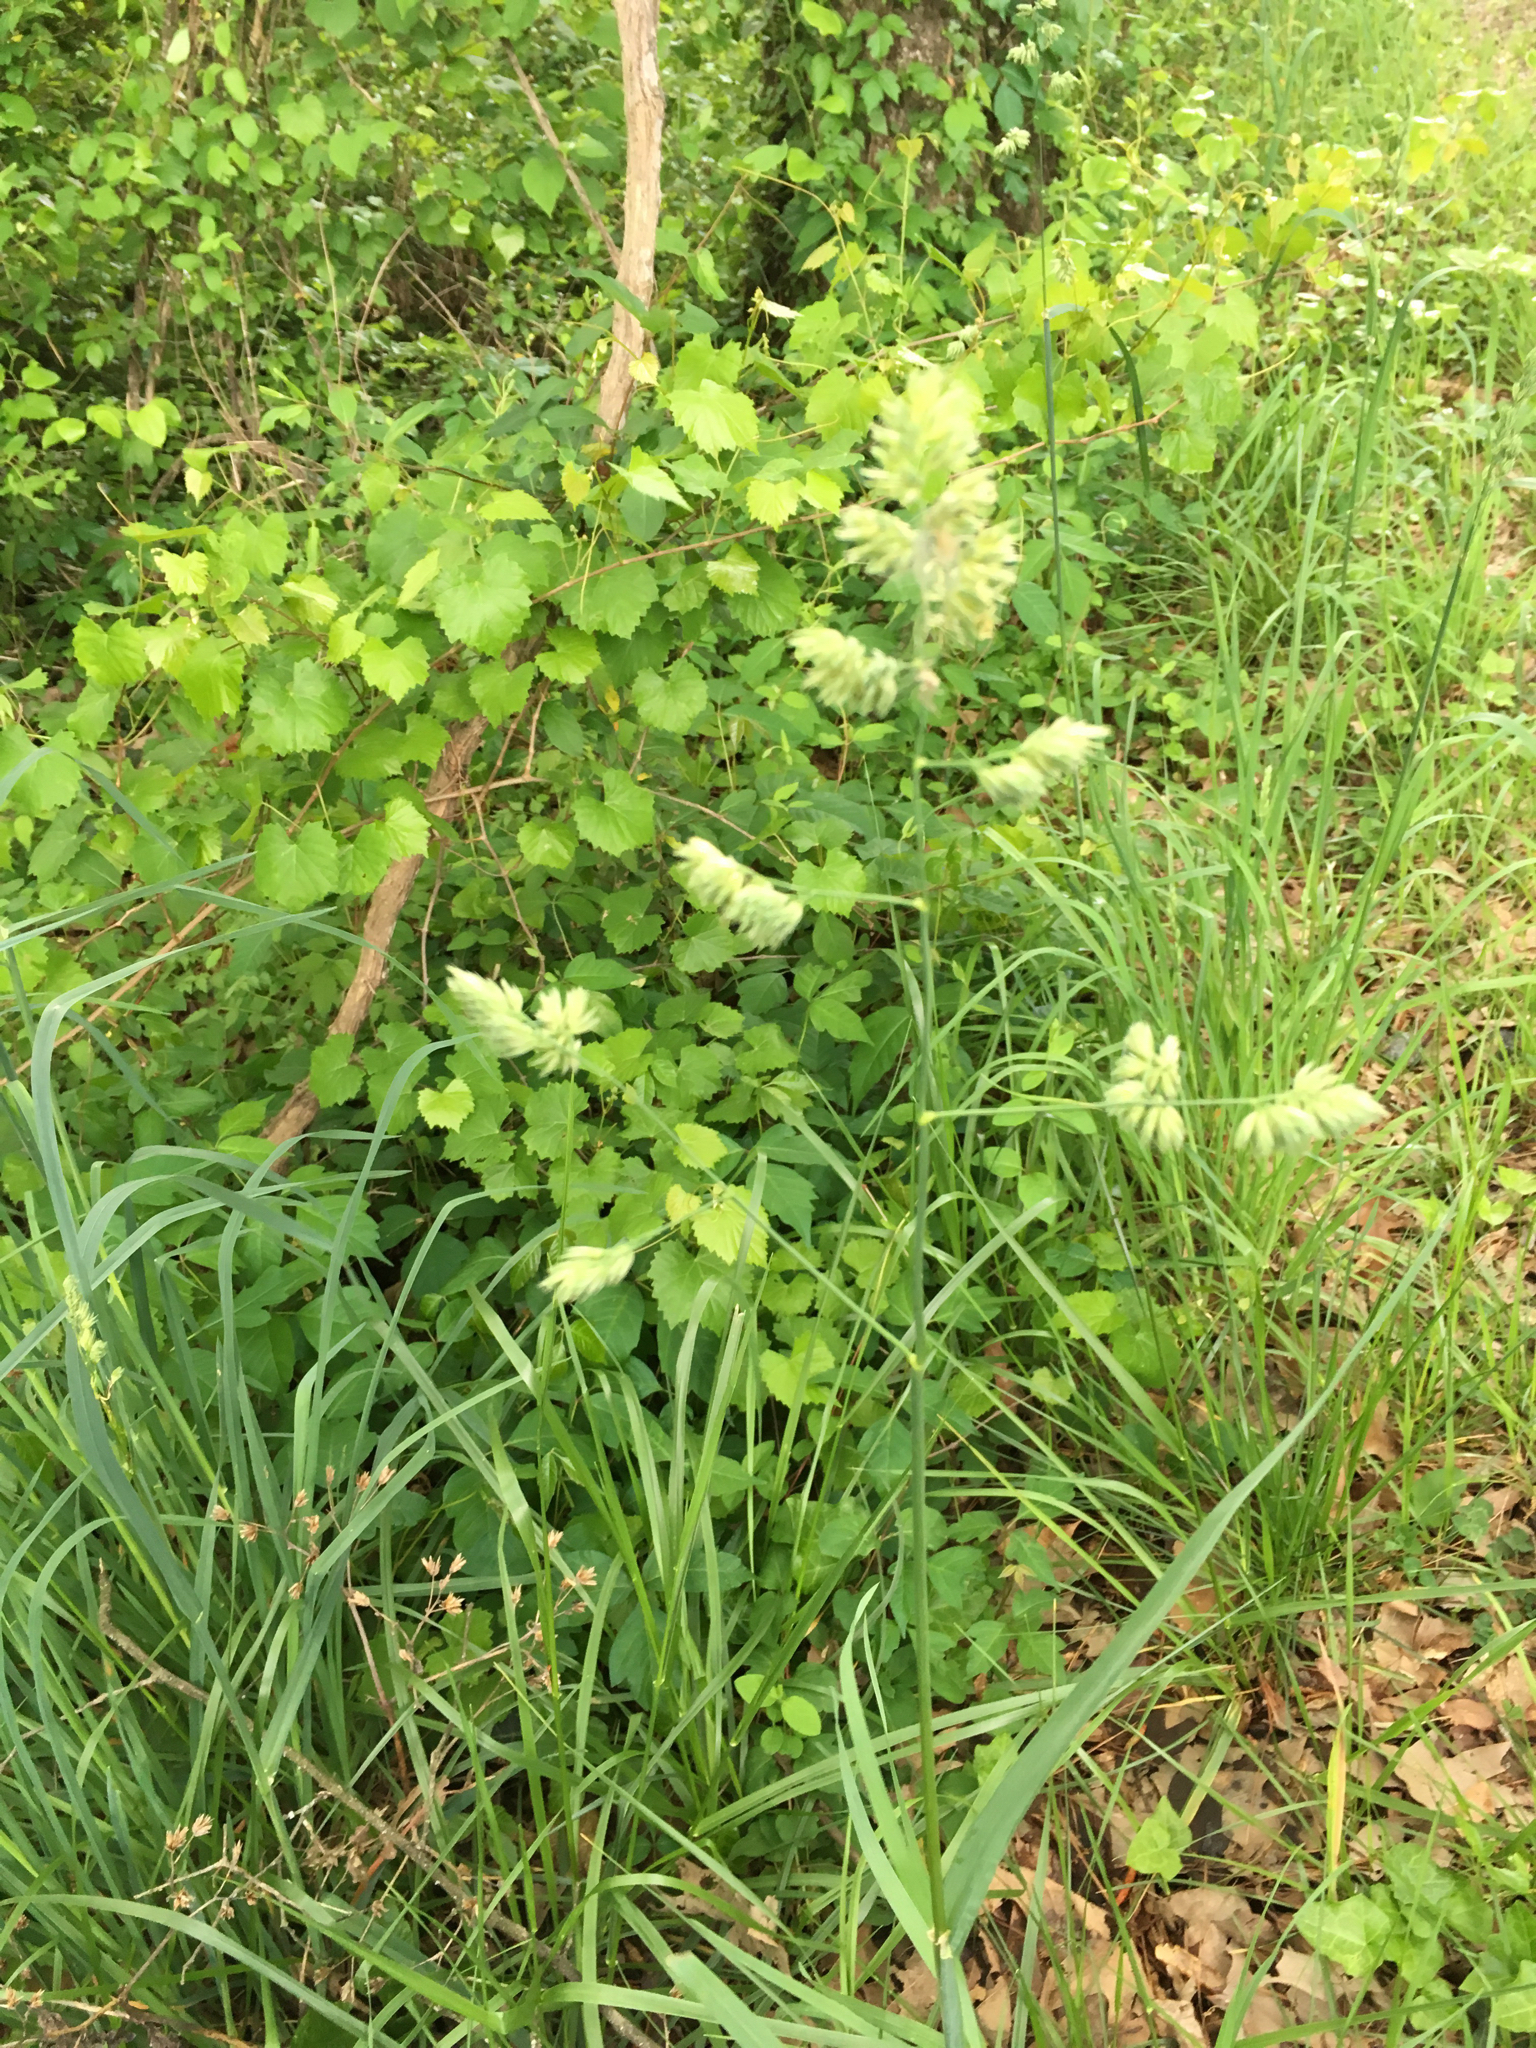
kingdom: Plantae
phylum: Tracheophyta
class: Liliopsida
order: Poales
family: Poaceae
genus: Dactylis
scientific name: Dactylis glomerata
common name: Orchardgrass
